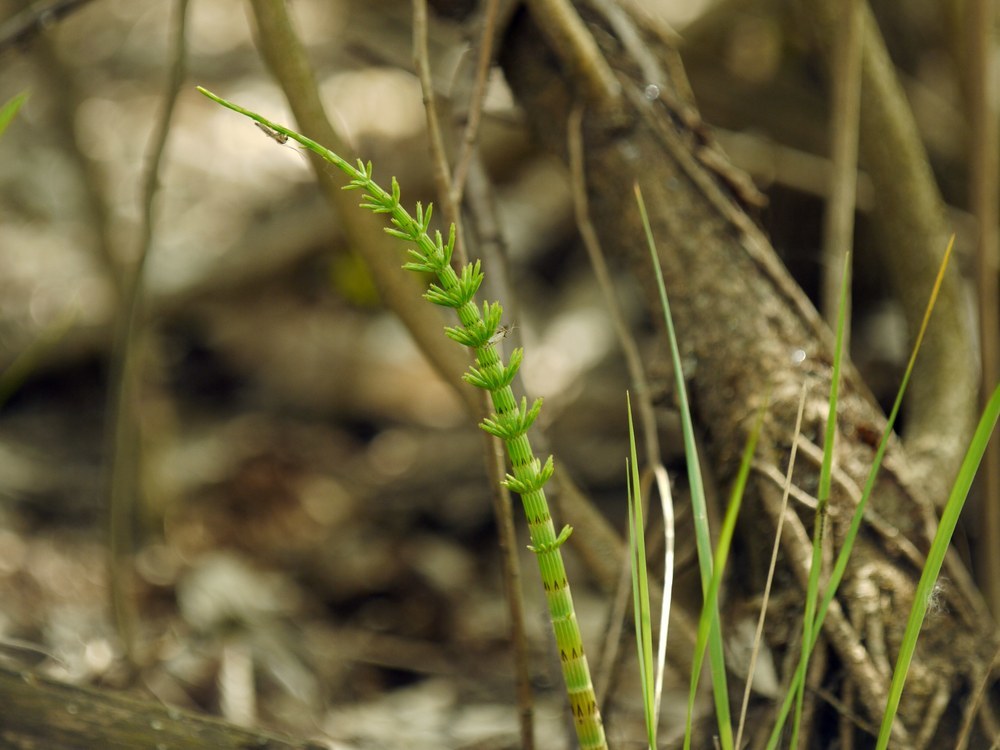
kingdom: Plantae
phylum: Tracheophyta
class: Polypodiopsida
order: Equisetales
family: Equisetaceae
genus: Equisetum
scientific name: Equisetum arvense
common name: Field horsetail
